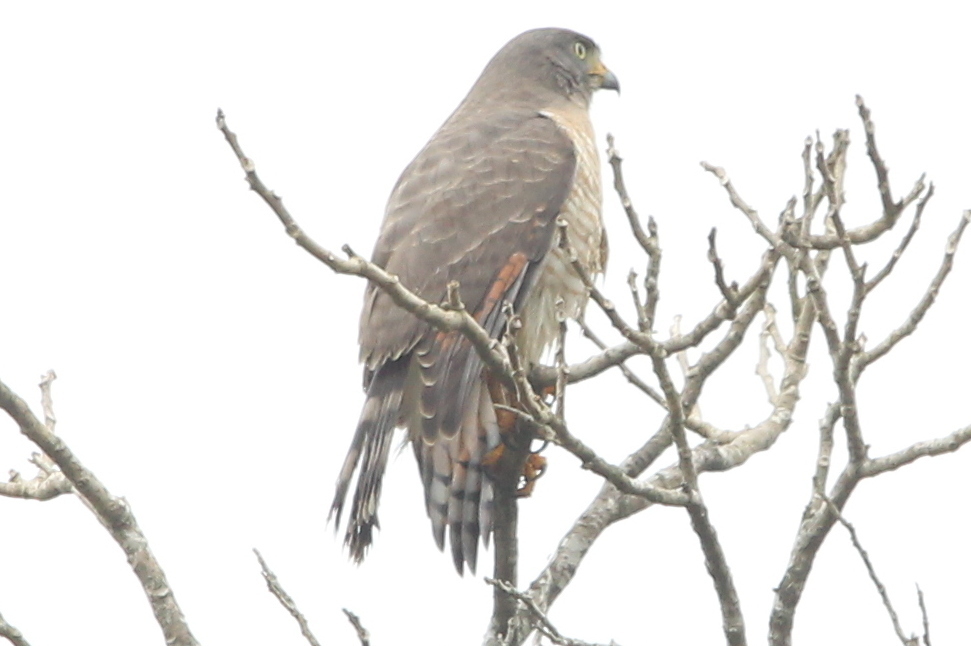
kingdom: Animalia
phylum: Chordata
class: Aves
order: Accipitriformes
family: Accipitridae
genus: Rupornis
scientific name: Rupornis magnirostris
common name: Roadside hawk
